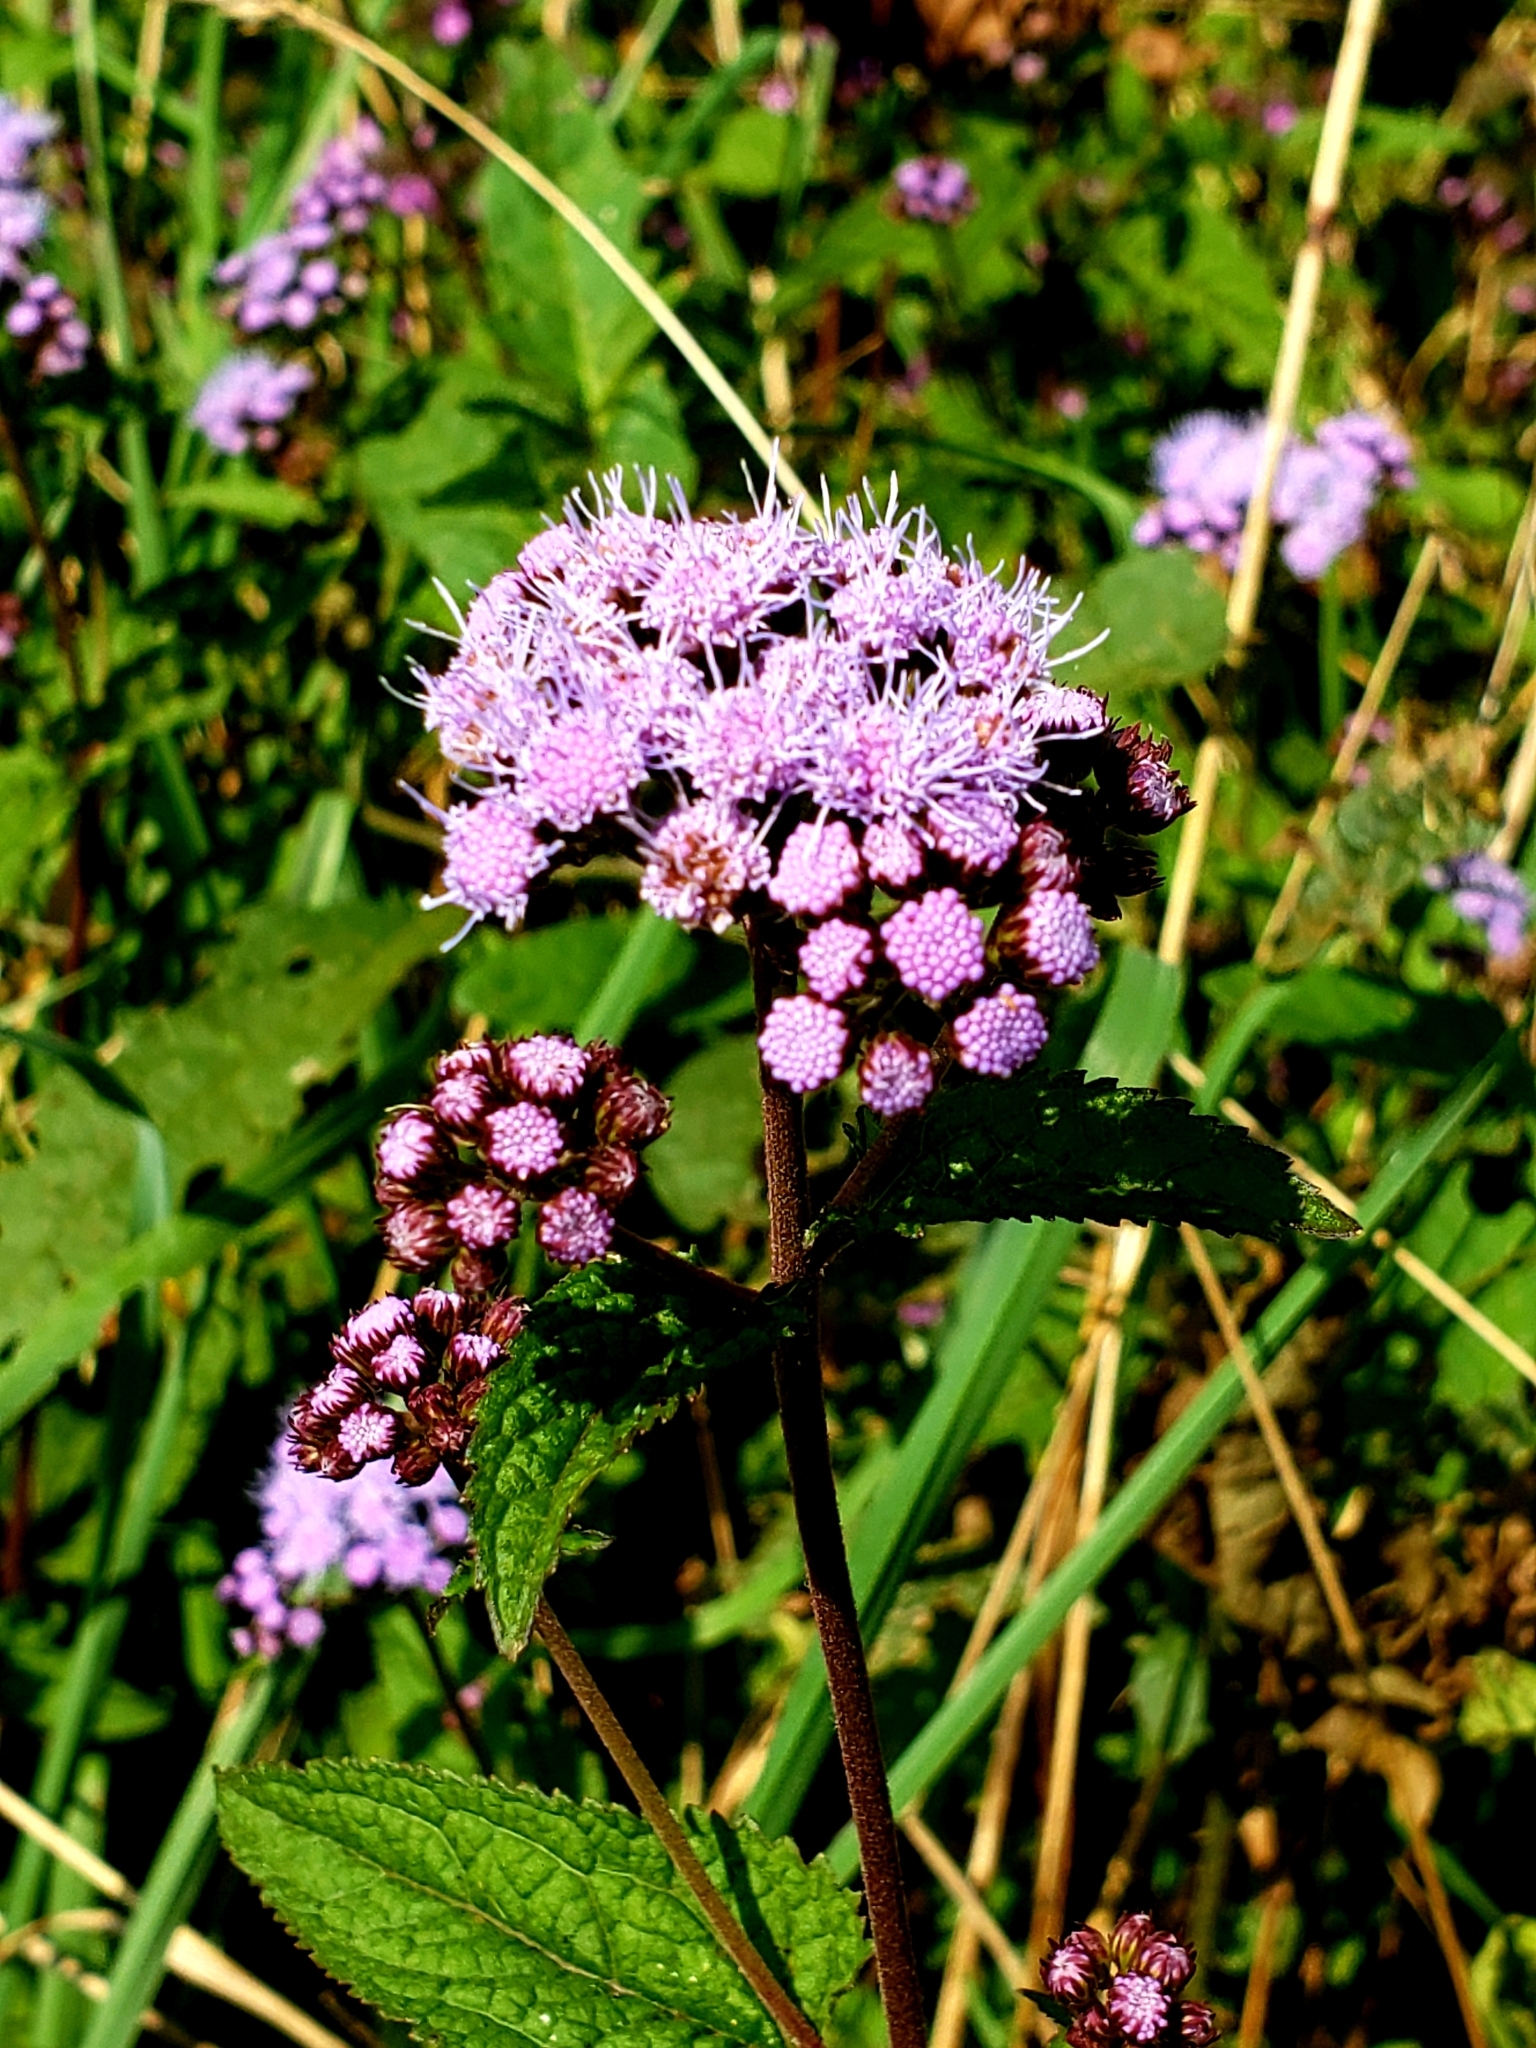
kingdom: Plantae
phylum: Tracheophyta
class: Magnoliopsida
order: Asterales
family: Asteraceae
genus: Conoclinium
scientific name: Conoclinium coelestinum
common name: Blue mistflower
